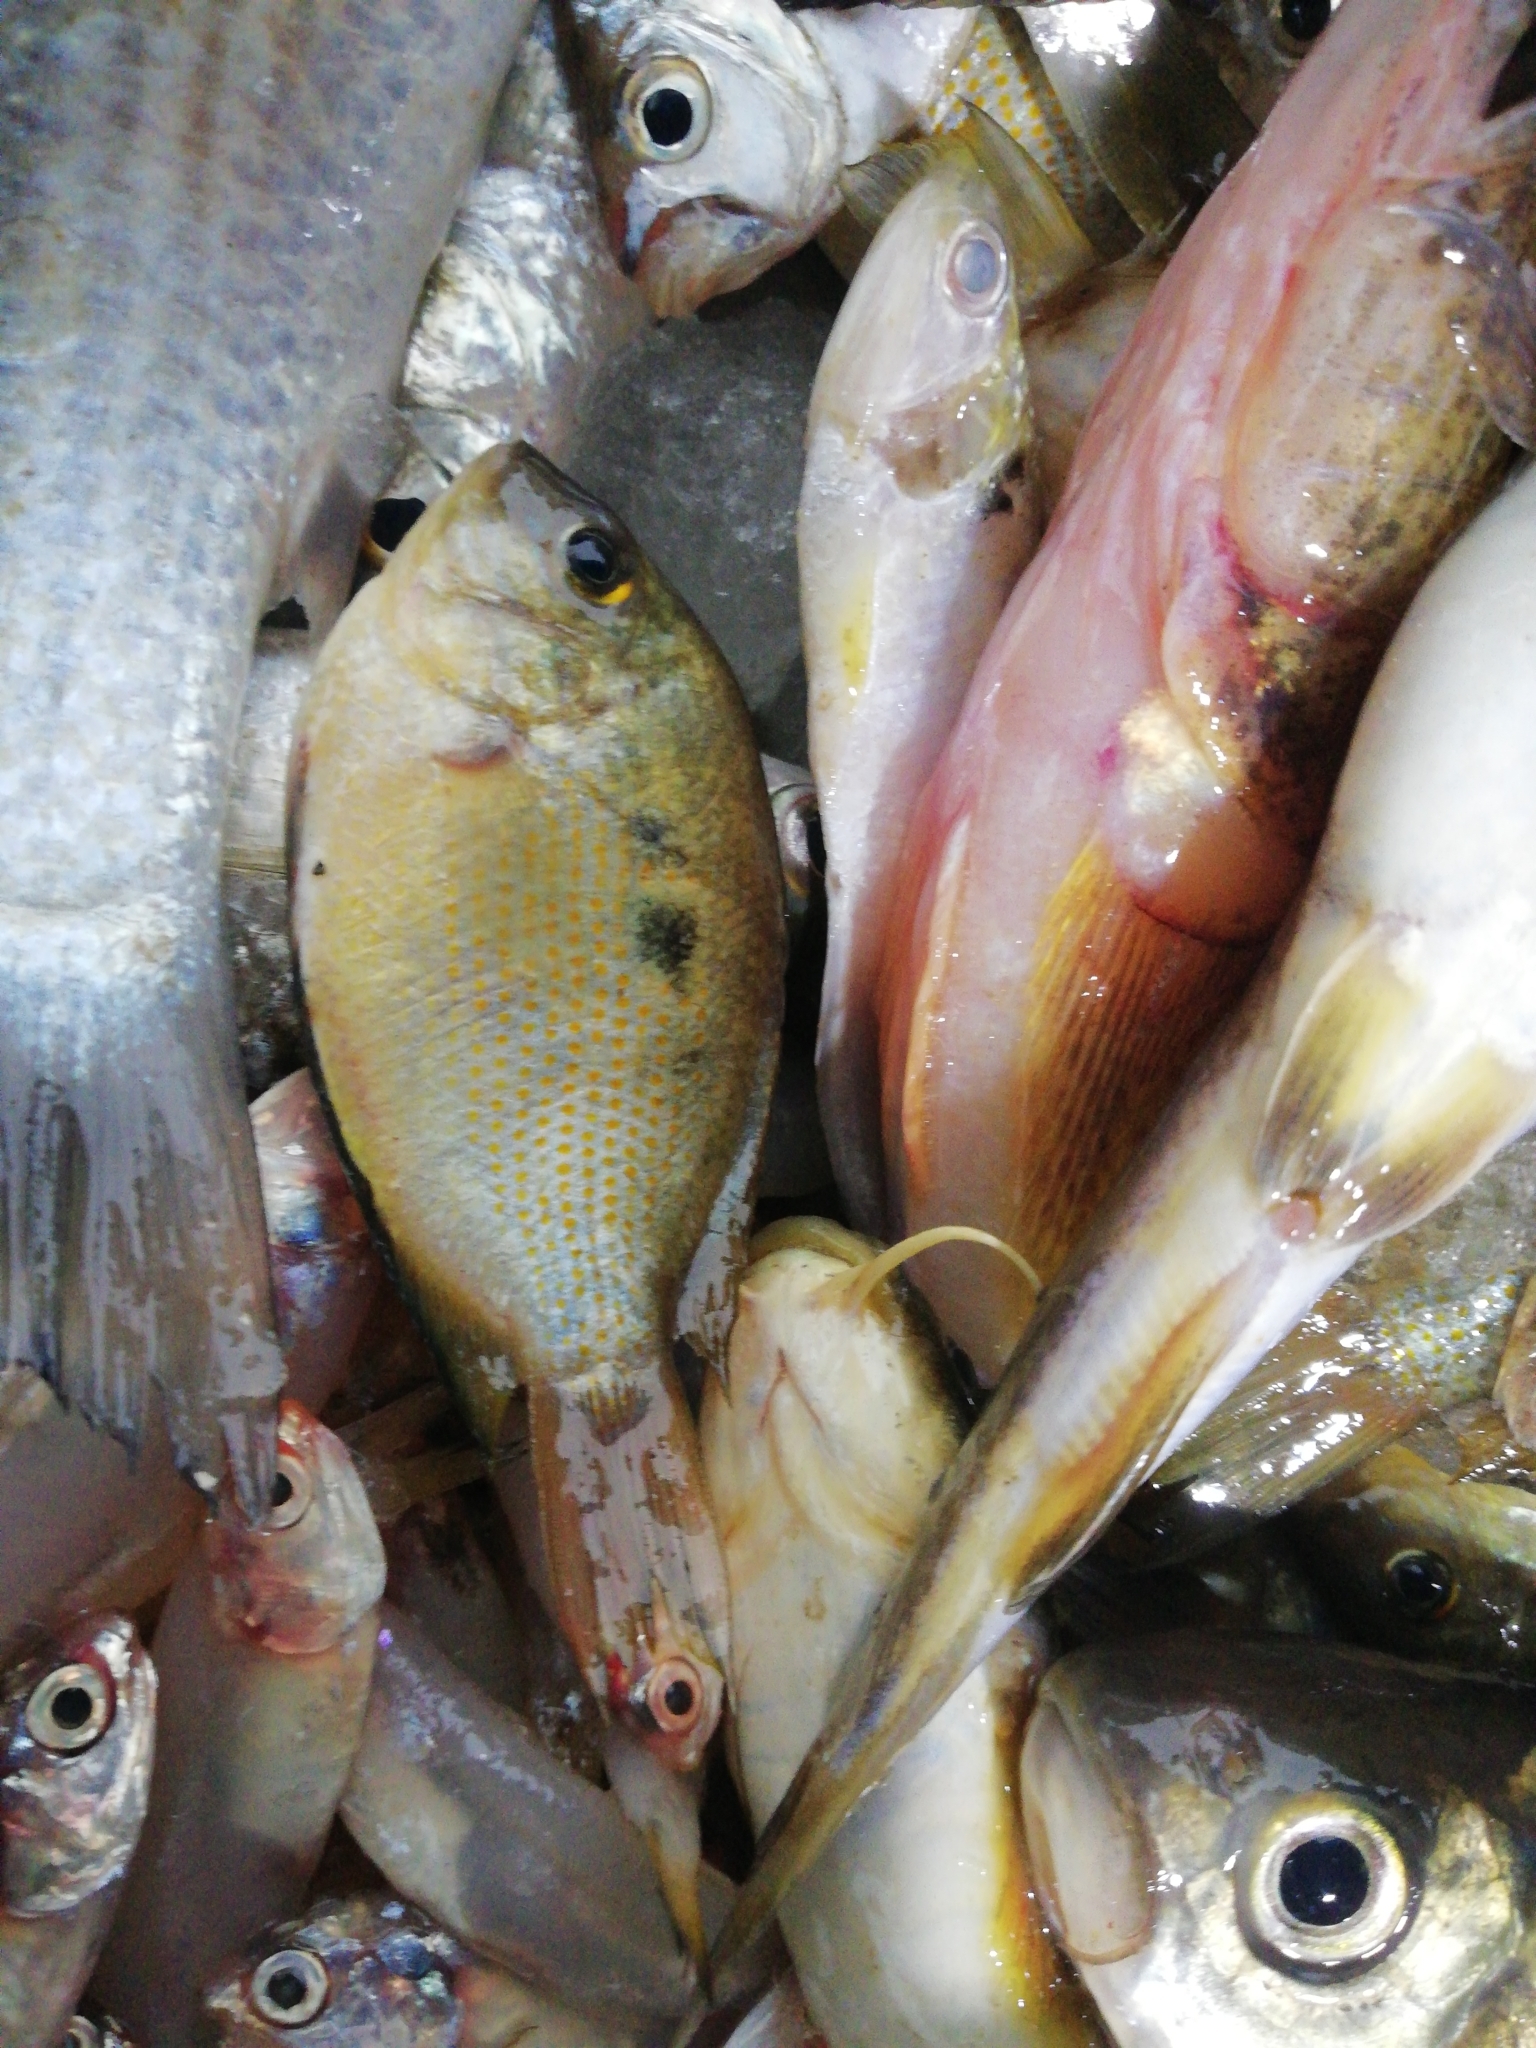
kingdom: Animalia
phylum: Chordata
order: Perciformes
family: Cichlidae
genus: Etroplus
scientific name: Etroplus maculatus
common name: Orange chromide
